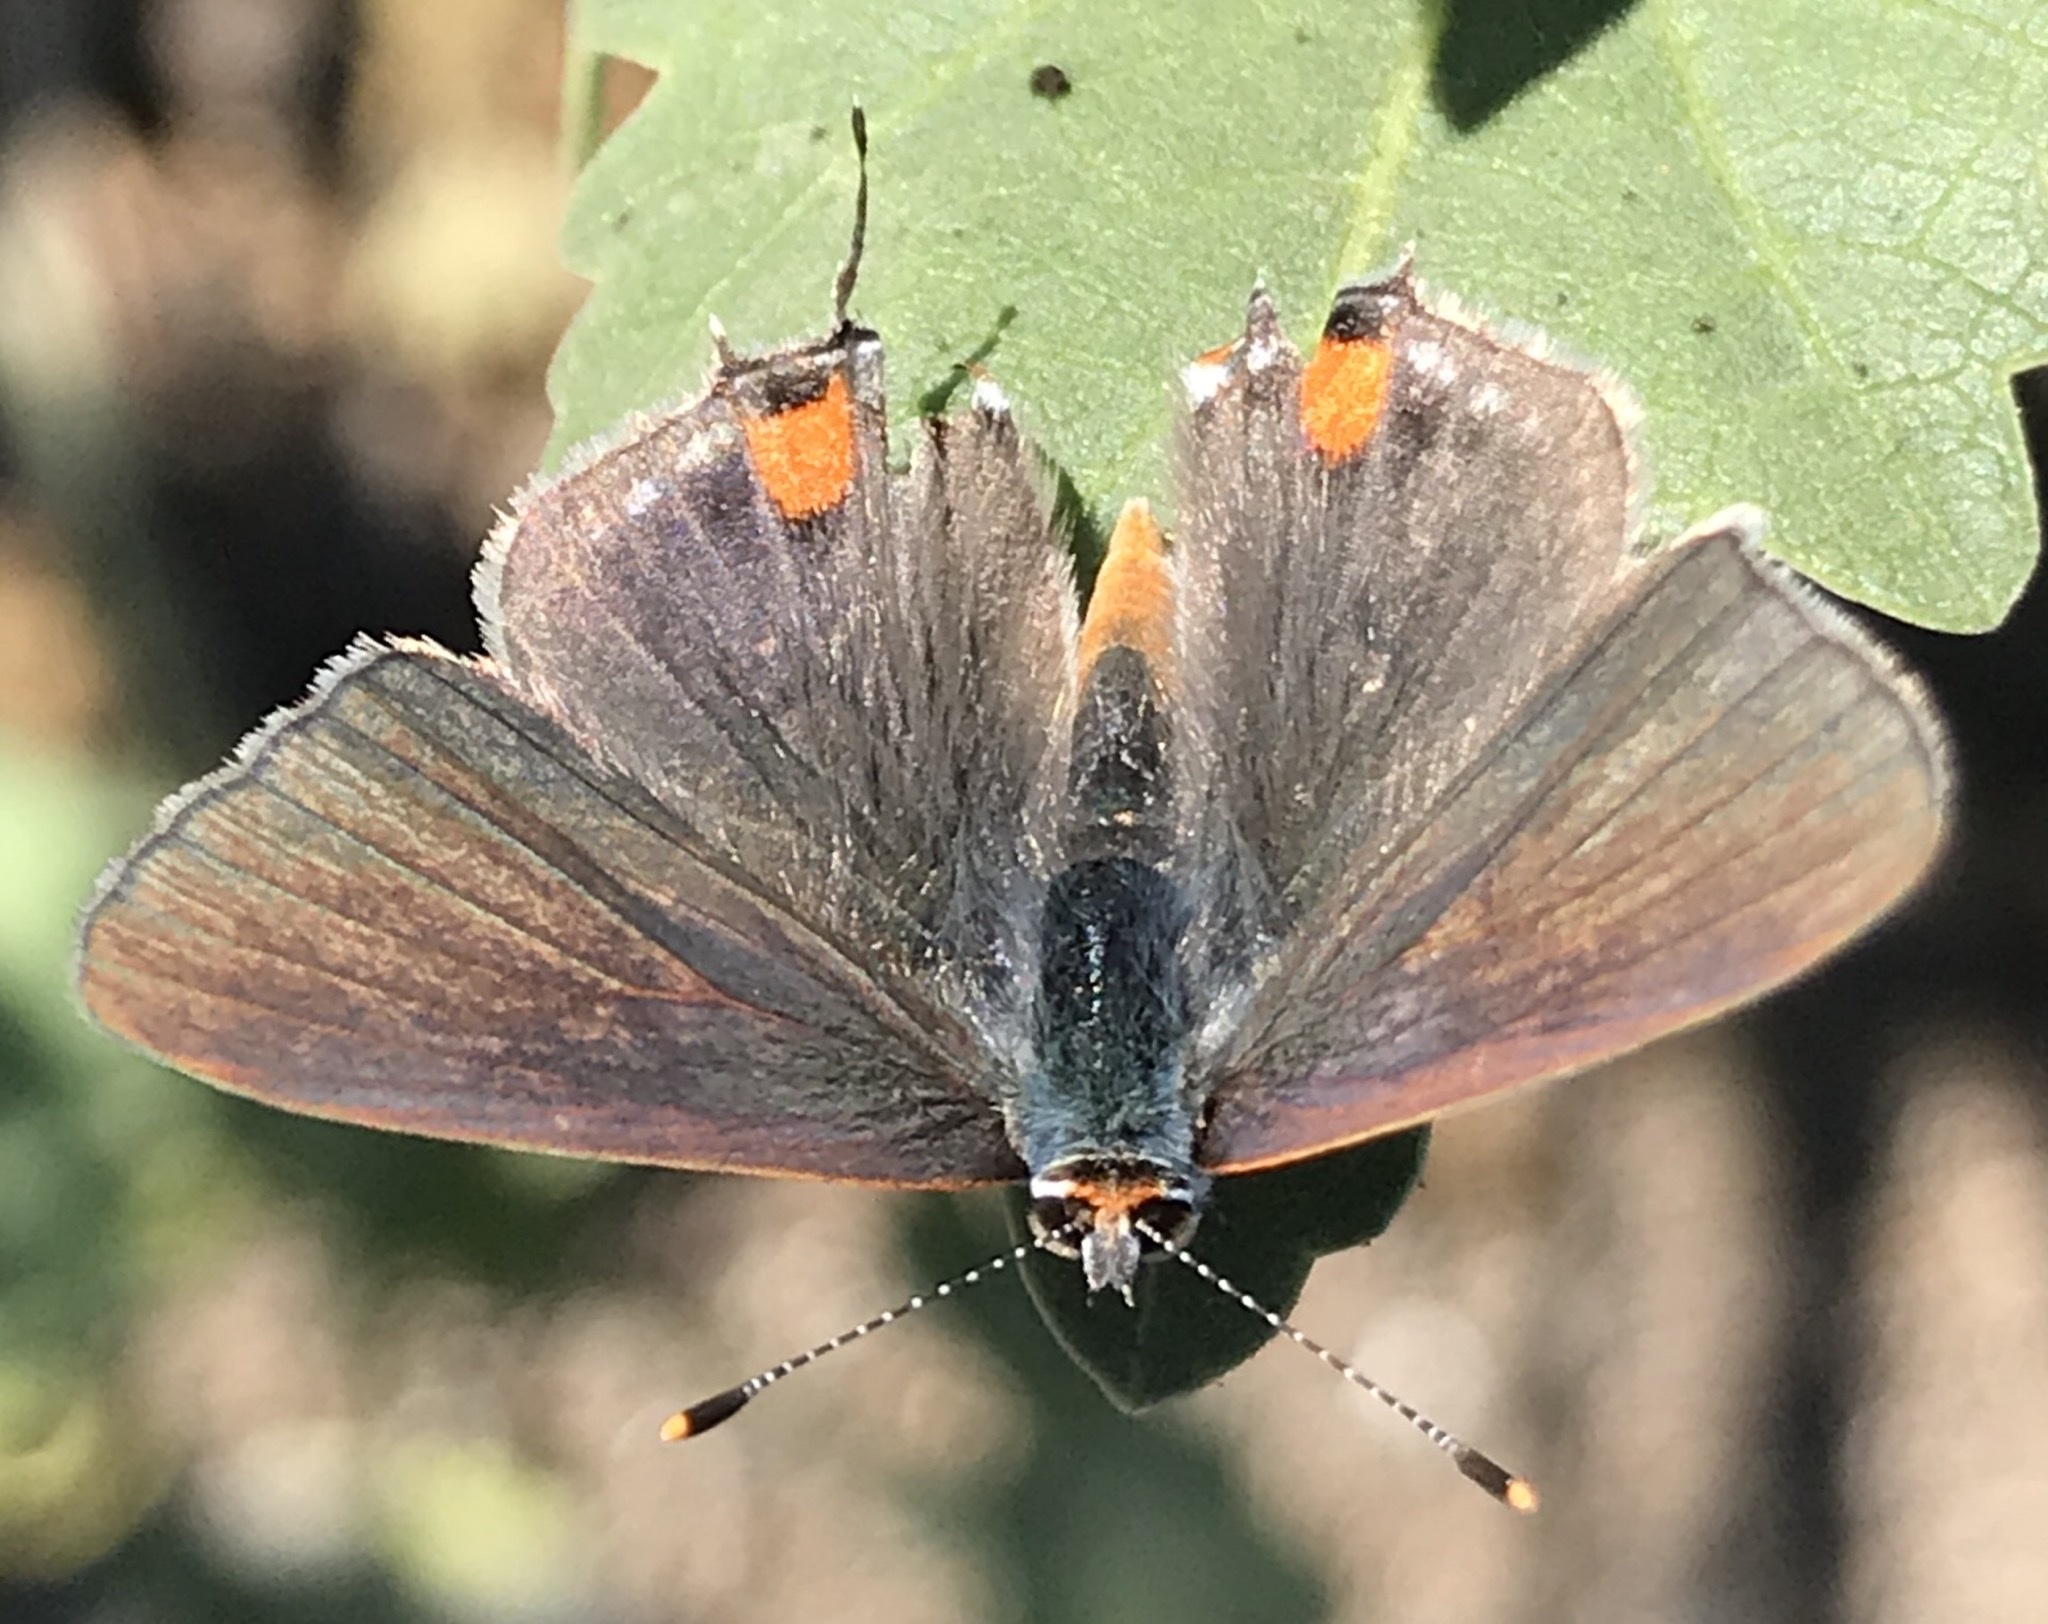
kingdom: Animalia
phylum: Arthropoda
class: Insecta
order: Lepidoptera
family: Lycaenidae
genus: Strymon
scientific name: Strymon melinus
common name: Gray hairstreak
